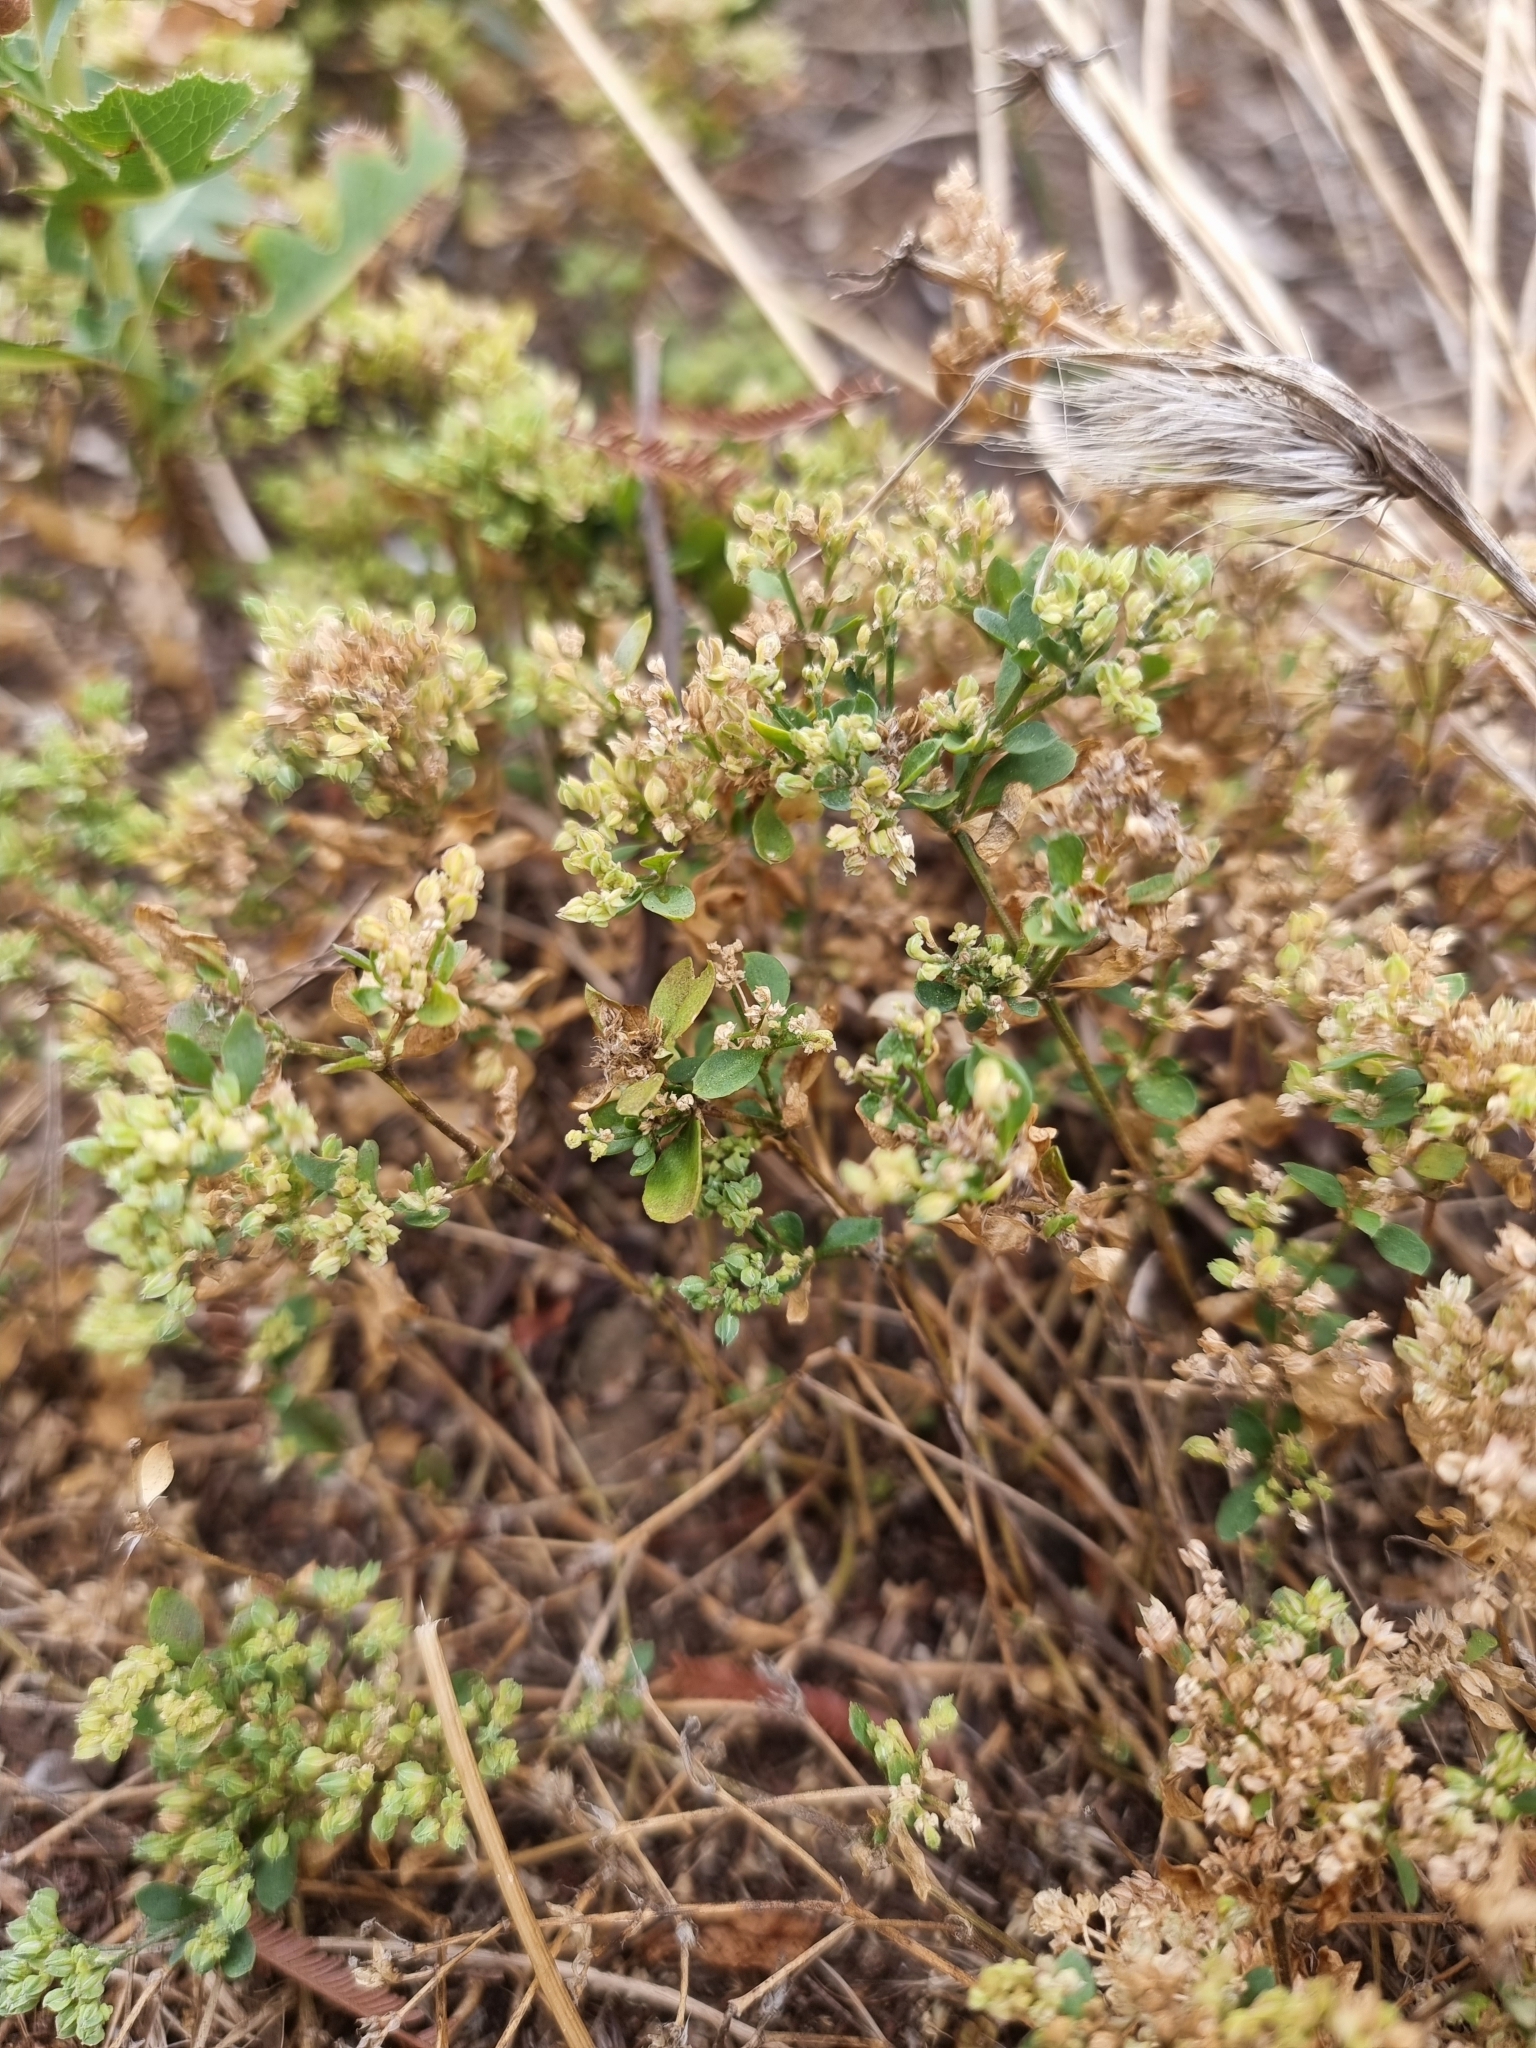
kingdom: Plantae
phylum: Tracheophyta
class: Magnoliopsida
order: Caryophyllales
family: Caryophyllaceae
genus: Polycarpon
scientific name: Polycarpon tetraphyllum
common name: Four-leaved all-seed
